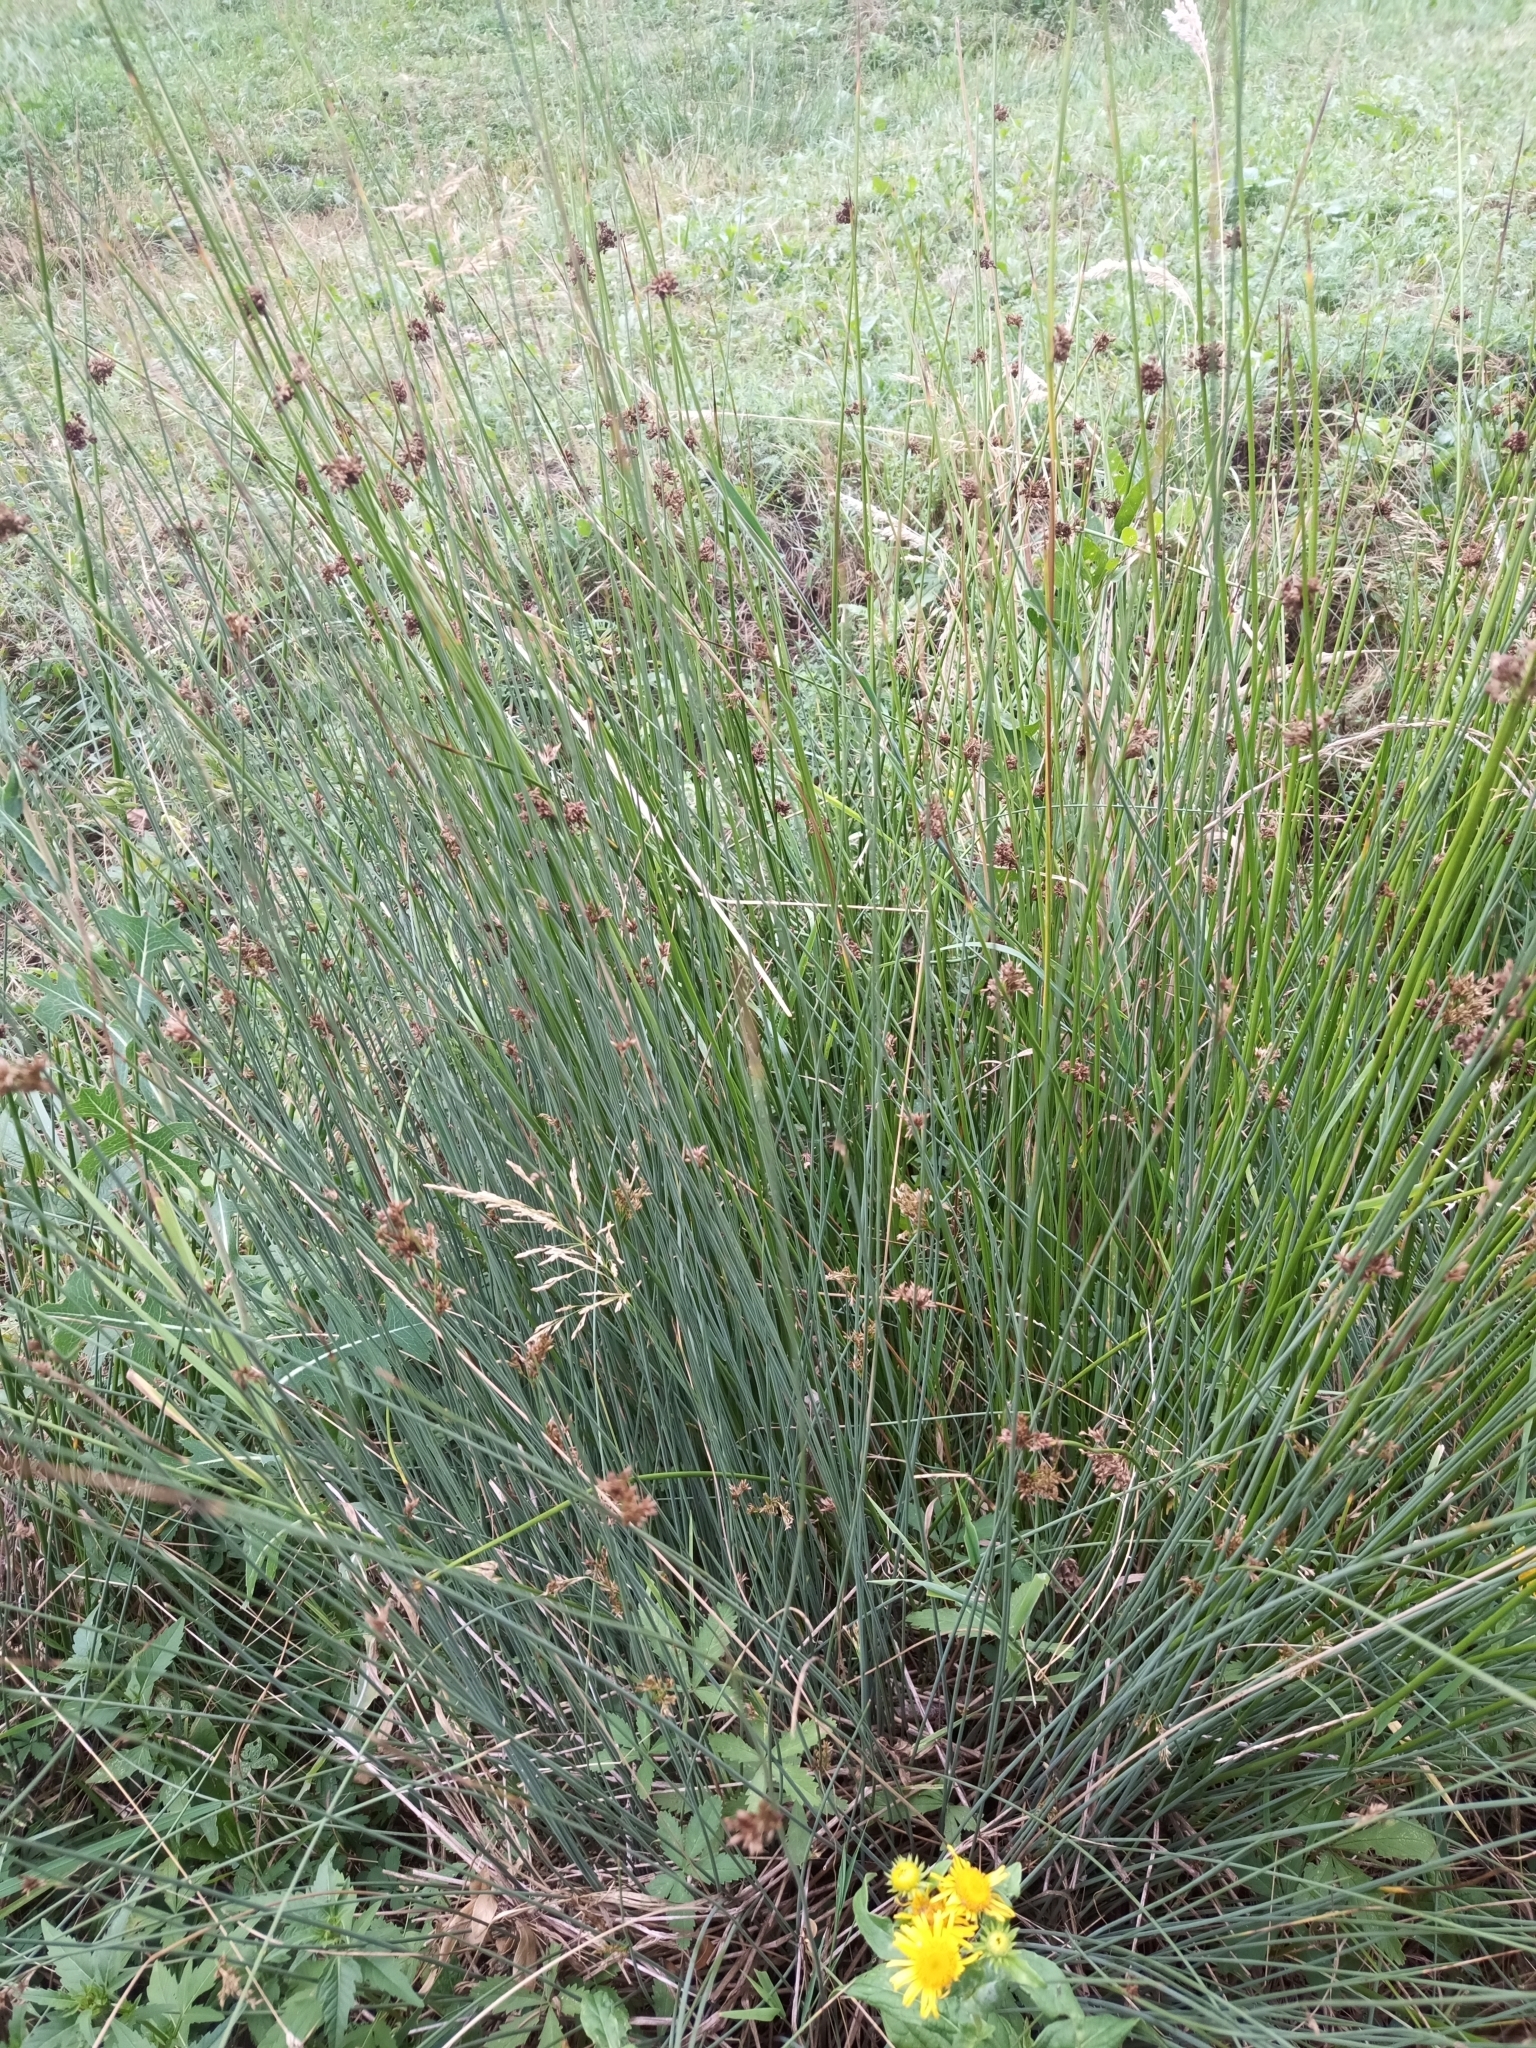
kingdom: Plantae
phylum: Tracheophyta
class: Liliopsida
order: Poales
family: Juncaceae
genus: Juncus
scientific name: Juncus effusus
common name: Soft rush
